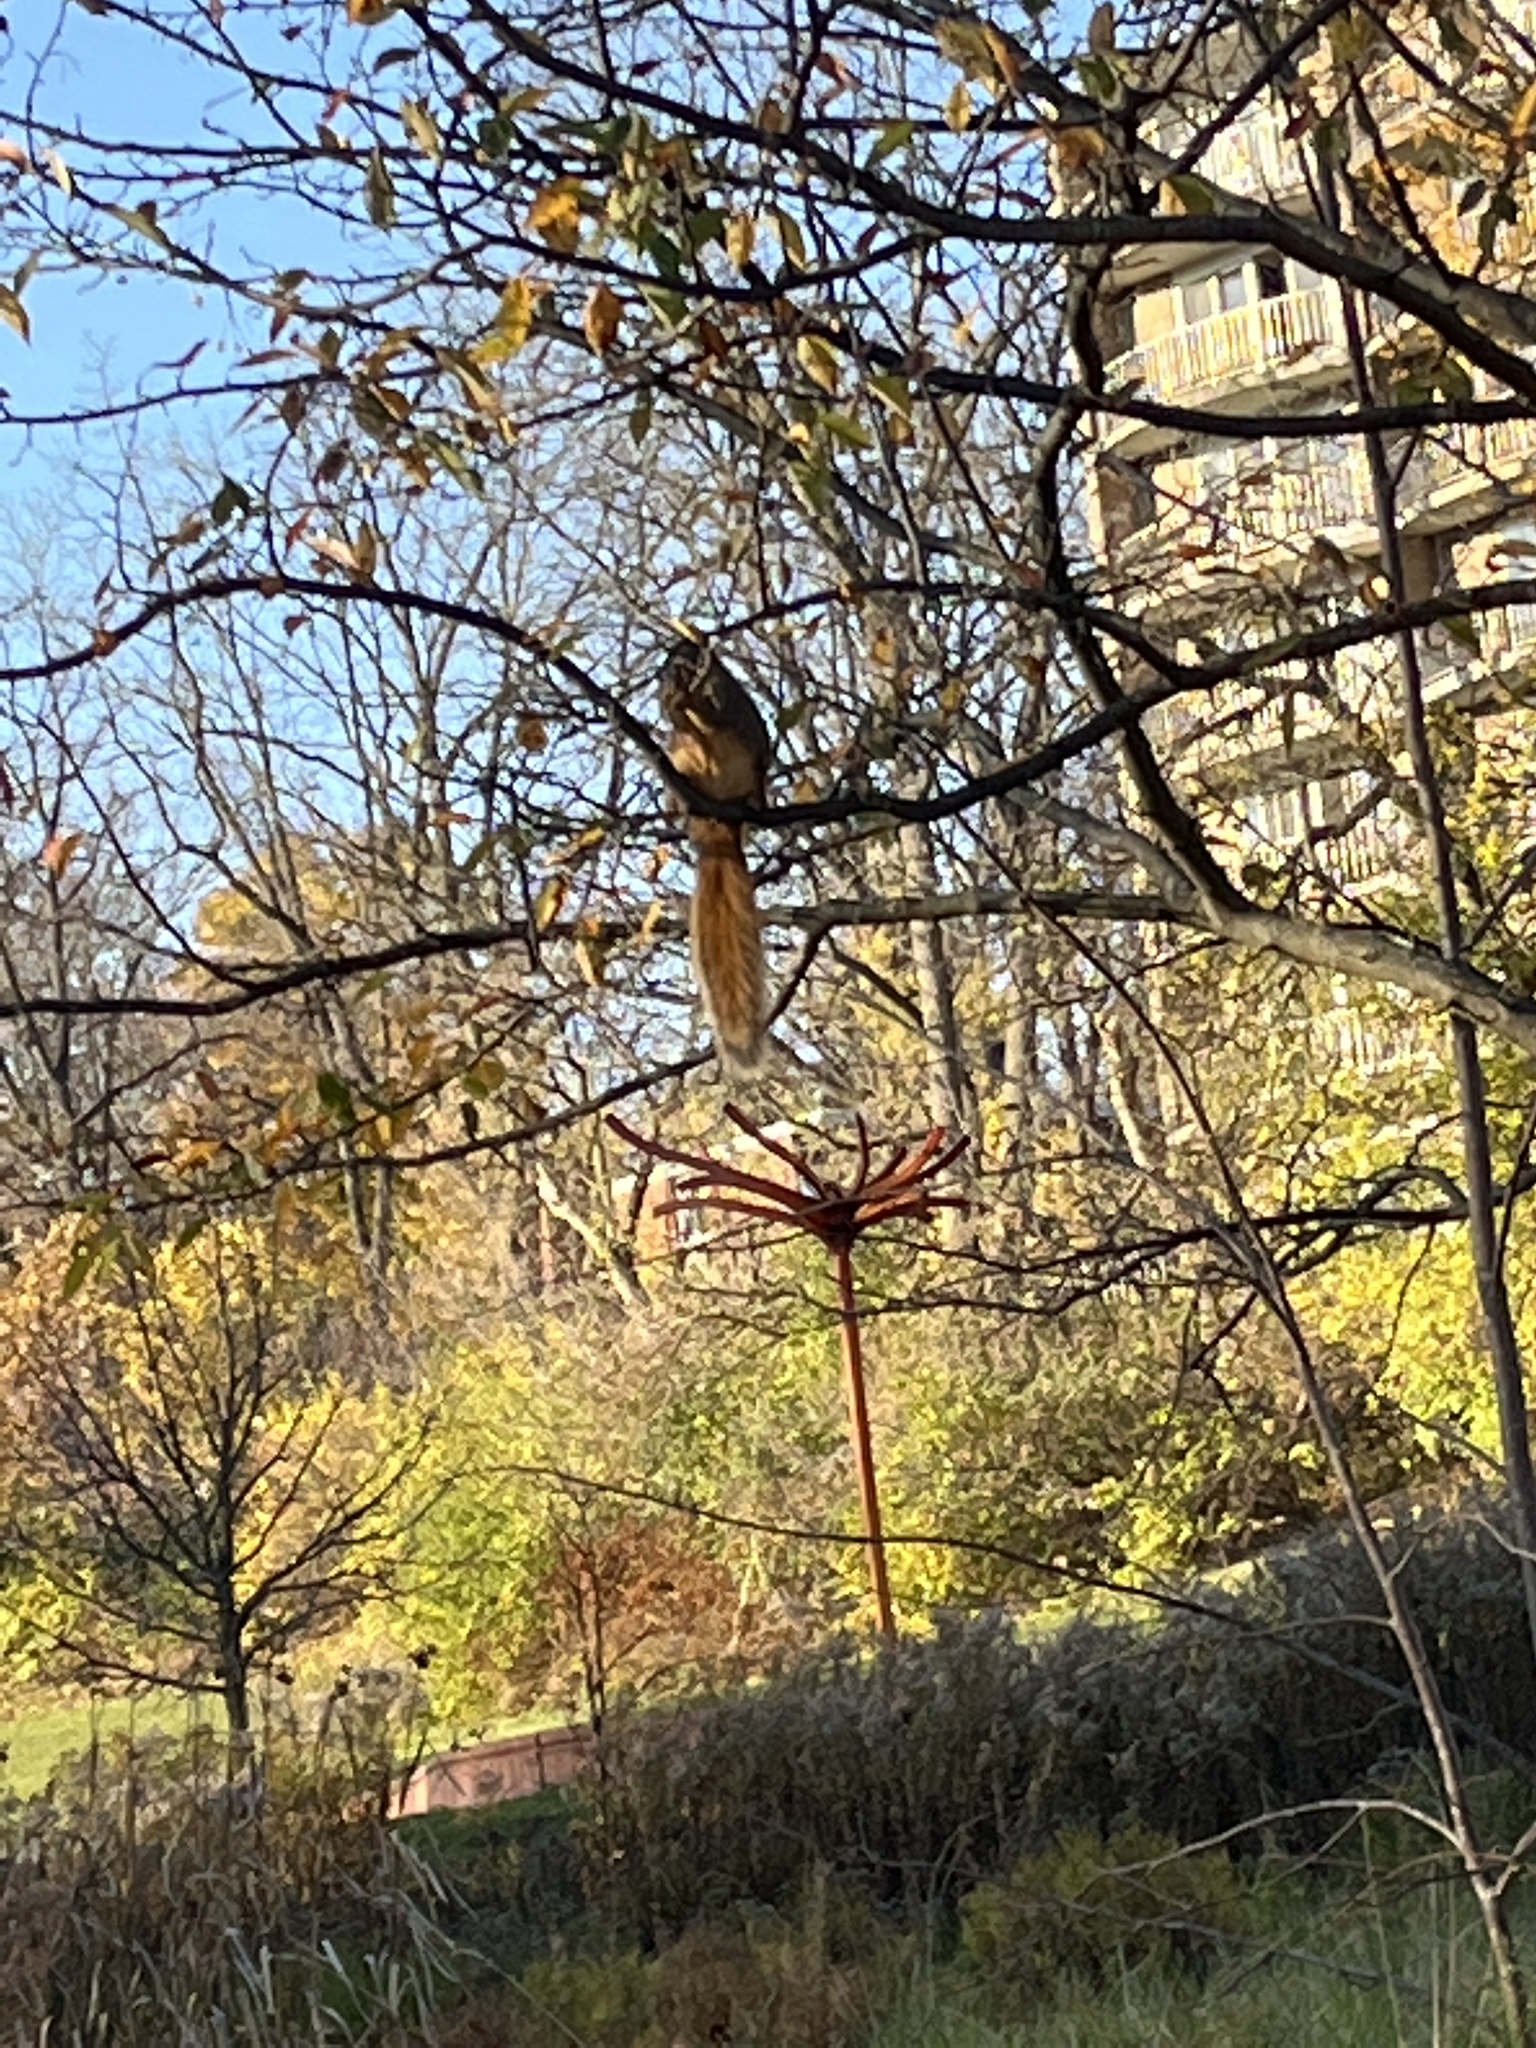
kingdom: Animalia
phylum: Chordata
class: Mammalia
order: Rodentia
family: Sciuridae
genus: Sciurus
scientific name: Sciurus niger
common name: Fox squirrel
